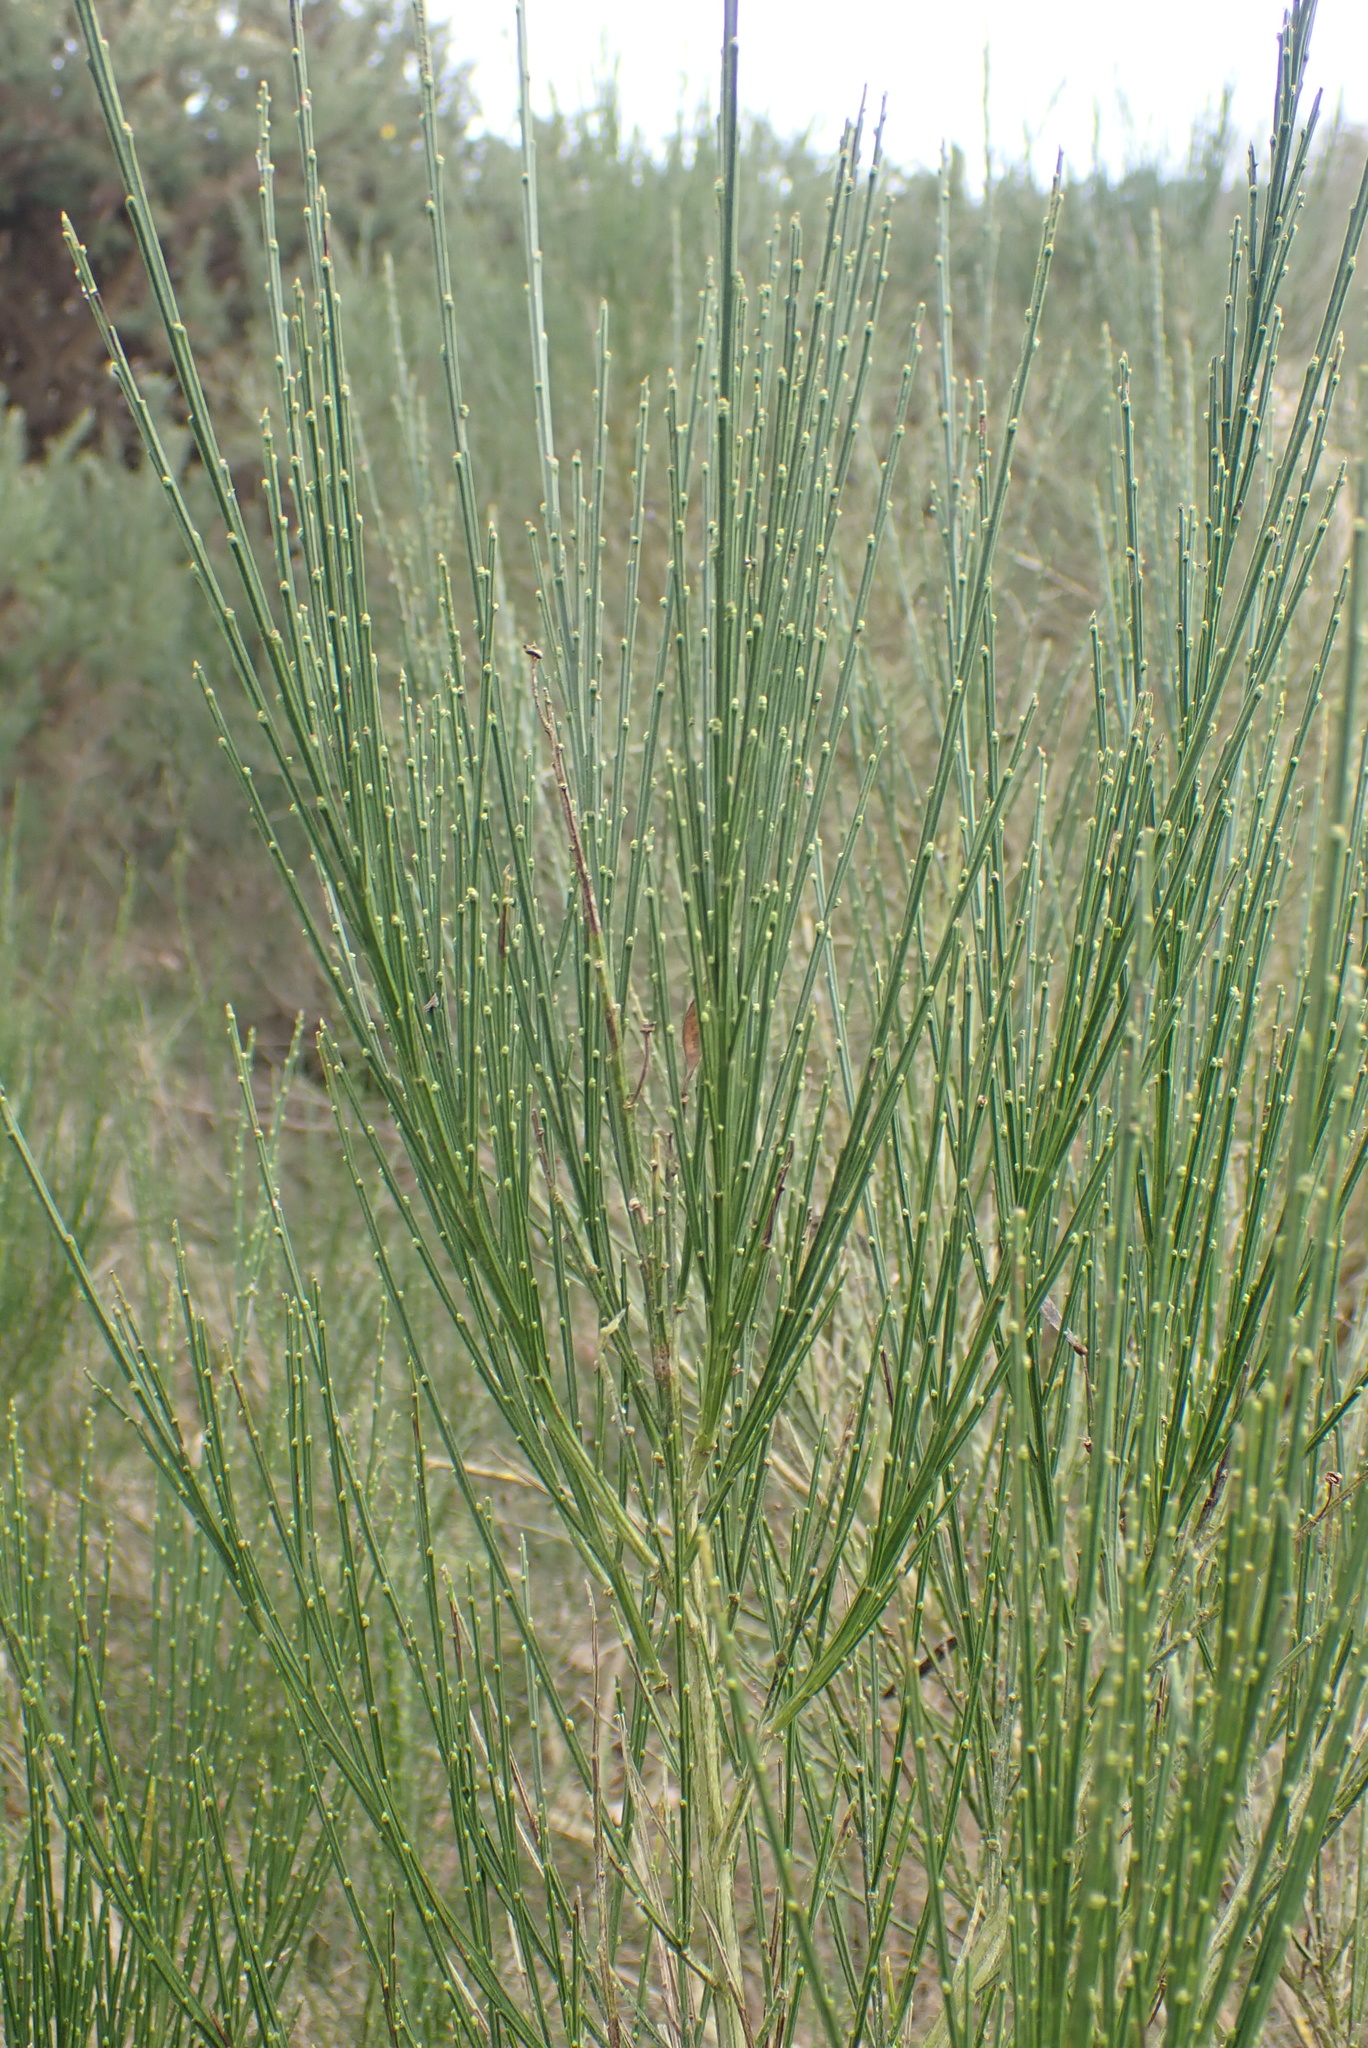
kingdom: Plantae
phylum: Tracheophyta
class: Magnoliopsida
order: Fabales
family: Fabaceae
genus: Cytisus
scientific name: Cytisus scoparius
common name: Scotch broom
